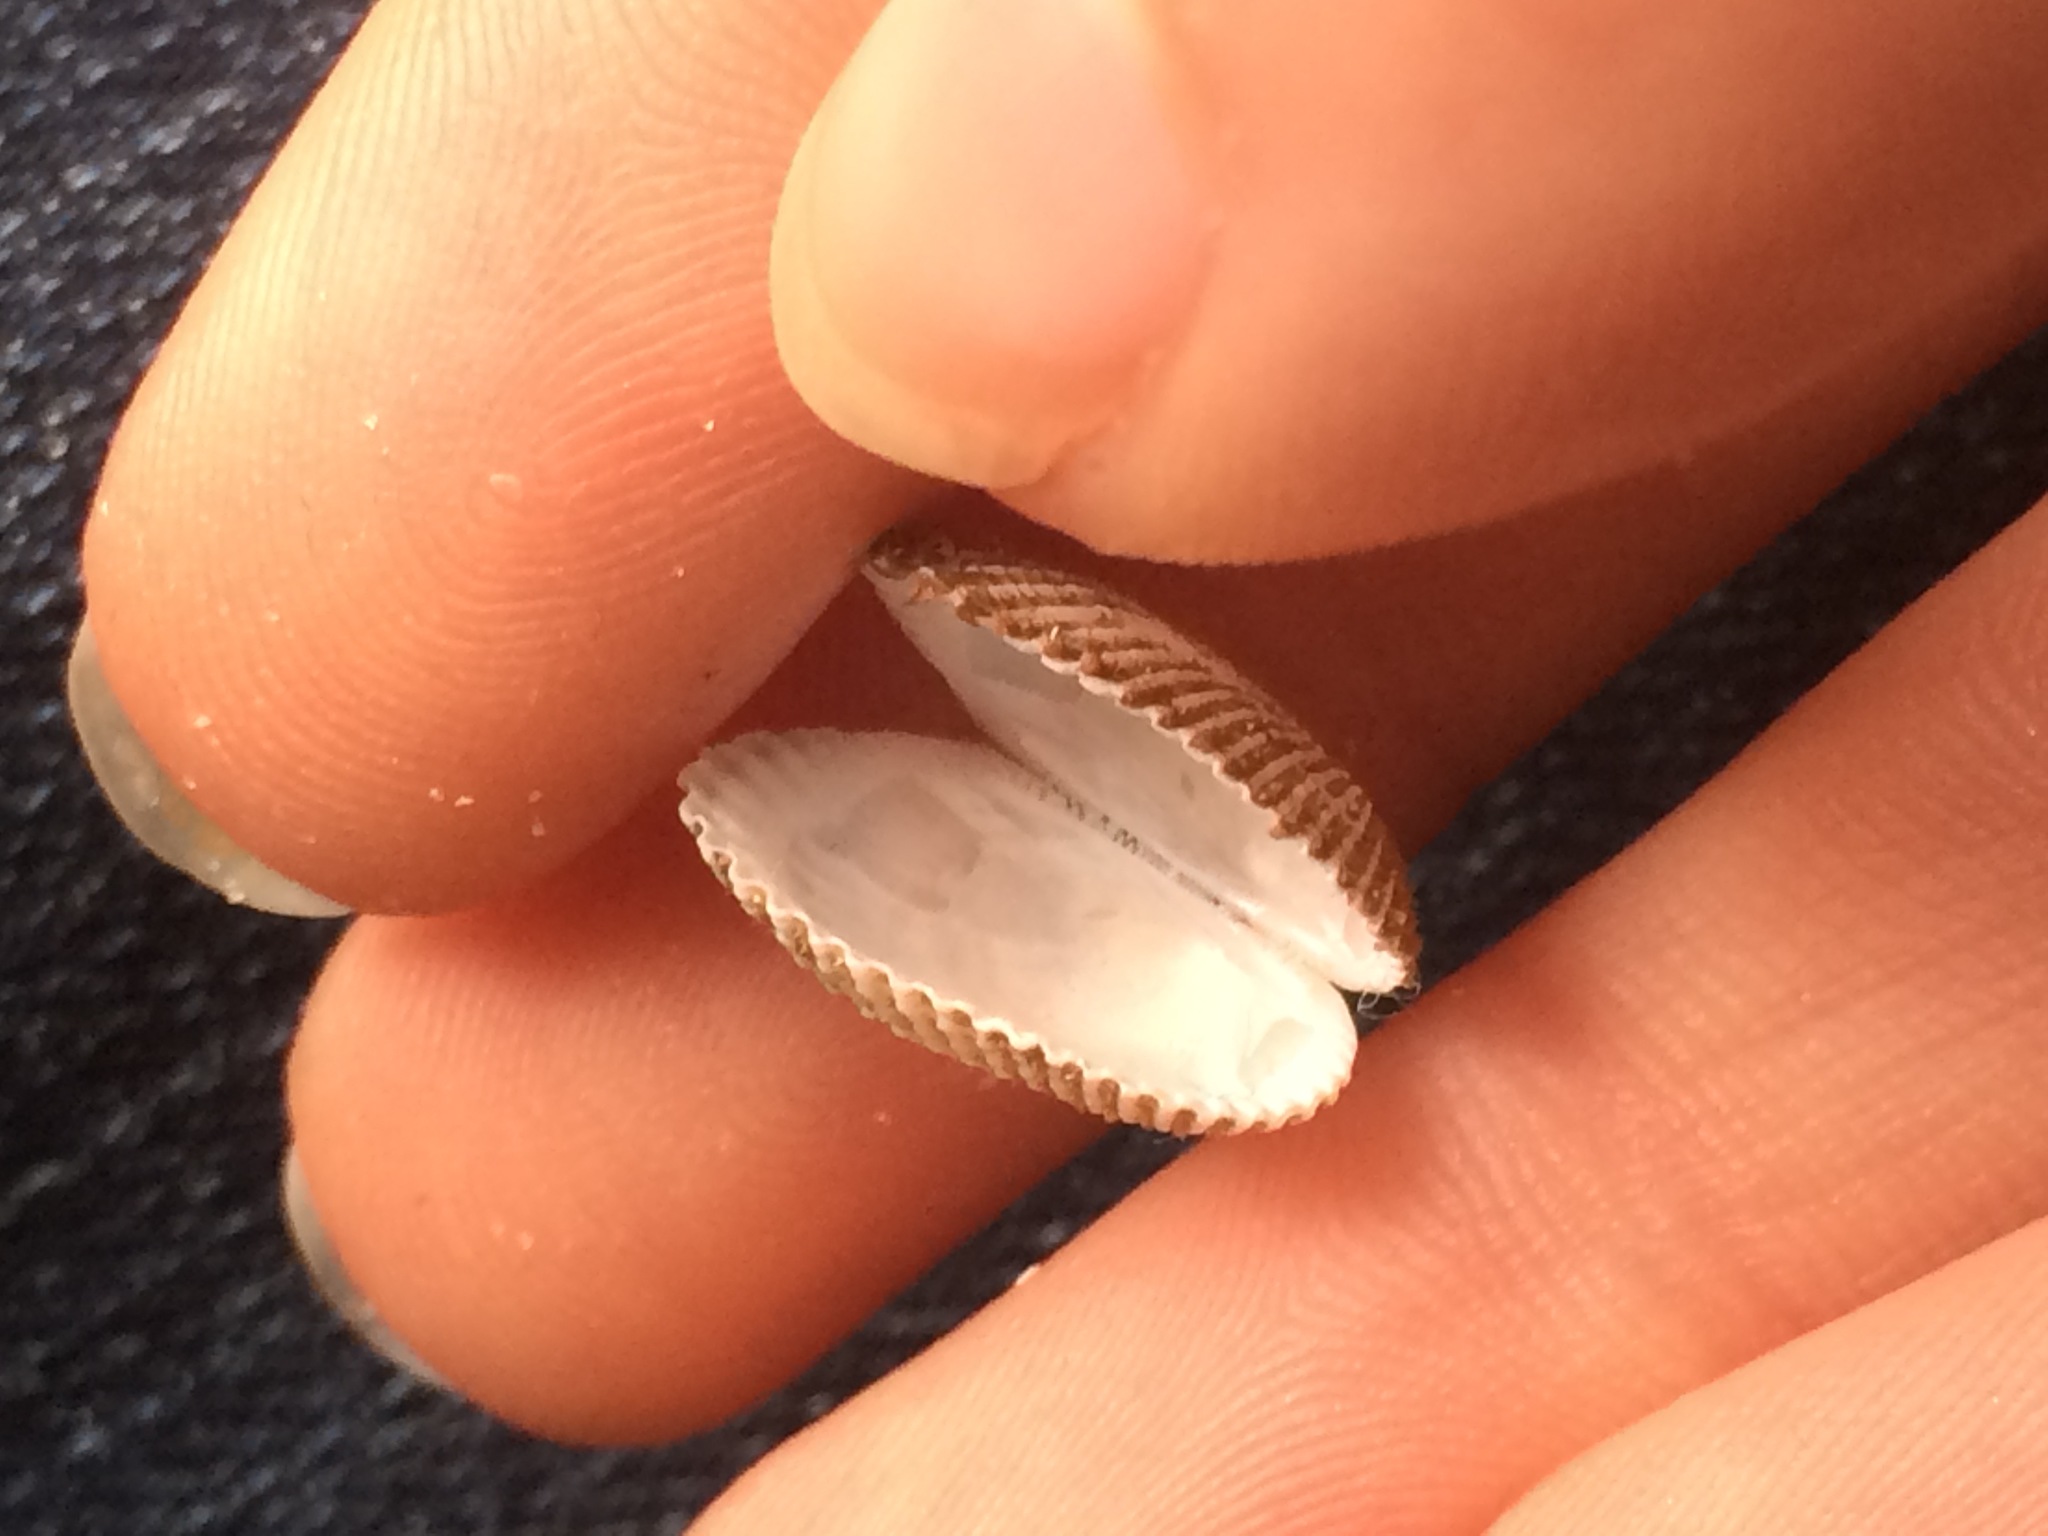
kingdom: Animalia
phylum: Mollusca
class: Bivalvia
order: Arcida
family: Arcidae
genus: Anadara
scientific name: Anadara transversa
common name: Transverse ark
